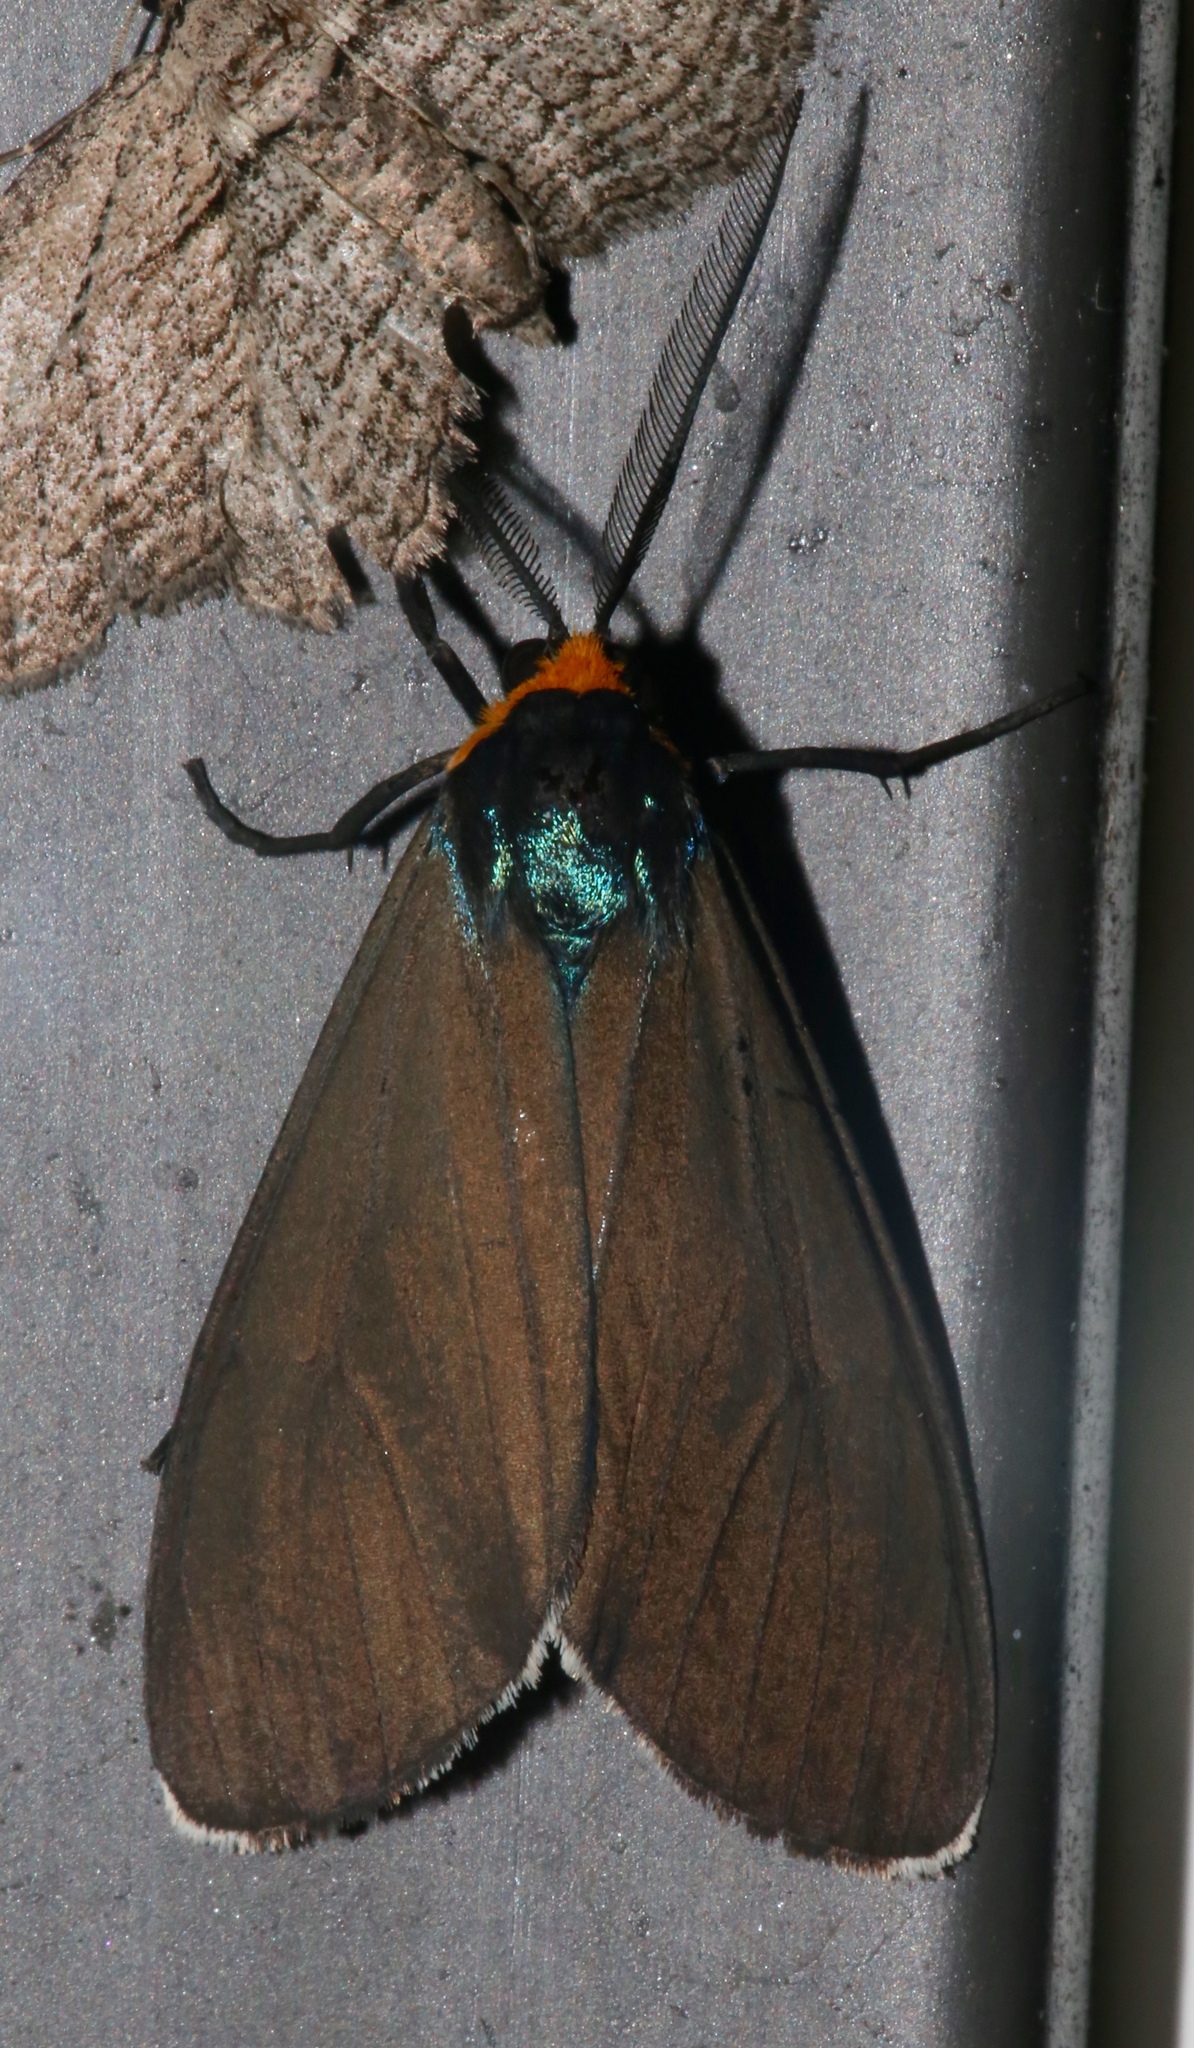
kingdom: Animalia
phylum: Arthropoda
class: Insecta
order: Lepidoptera
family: Erebidae
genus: Ctenucha
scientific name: Ctenucha virginica
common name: Virginia ctenucha moth
